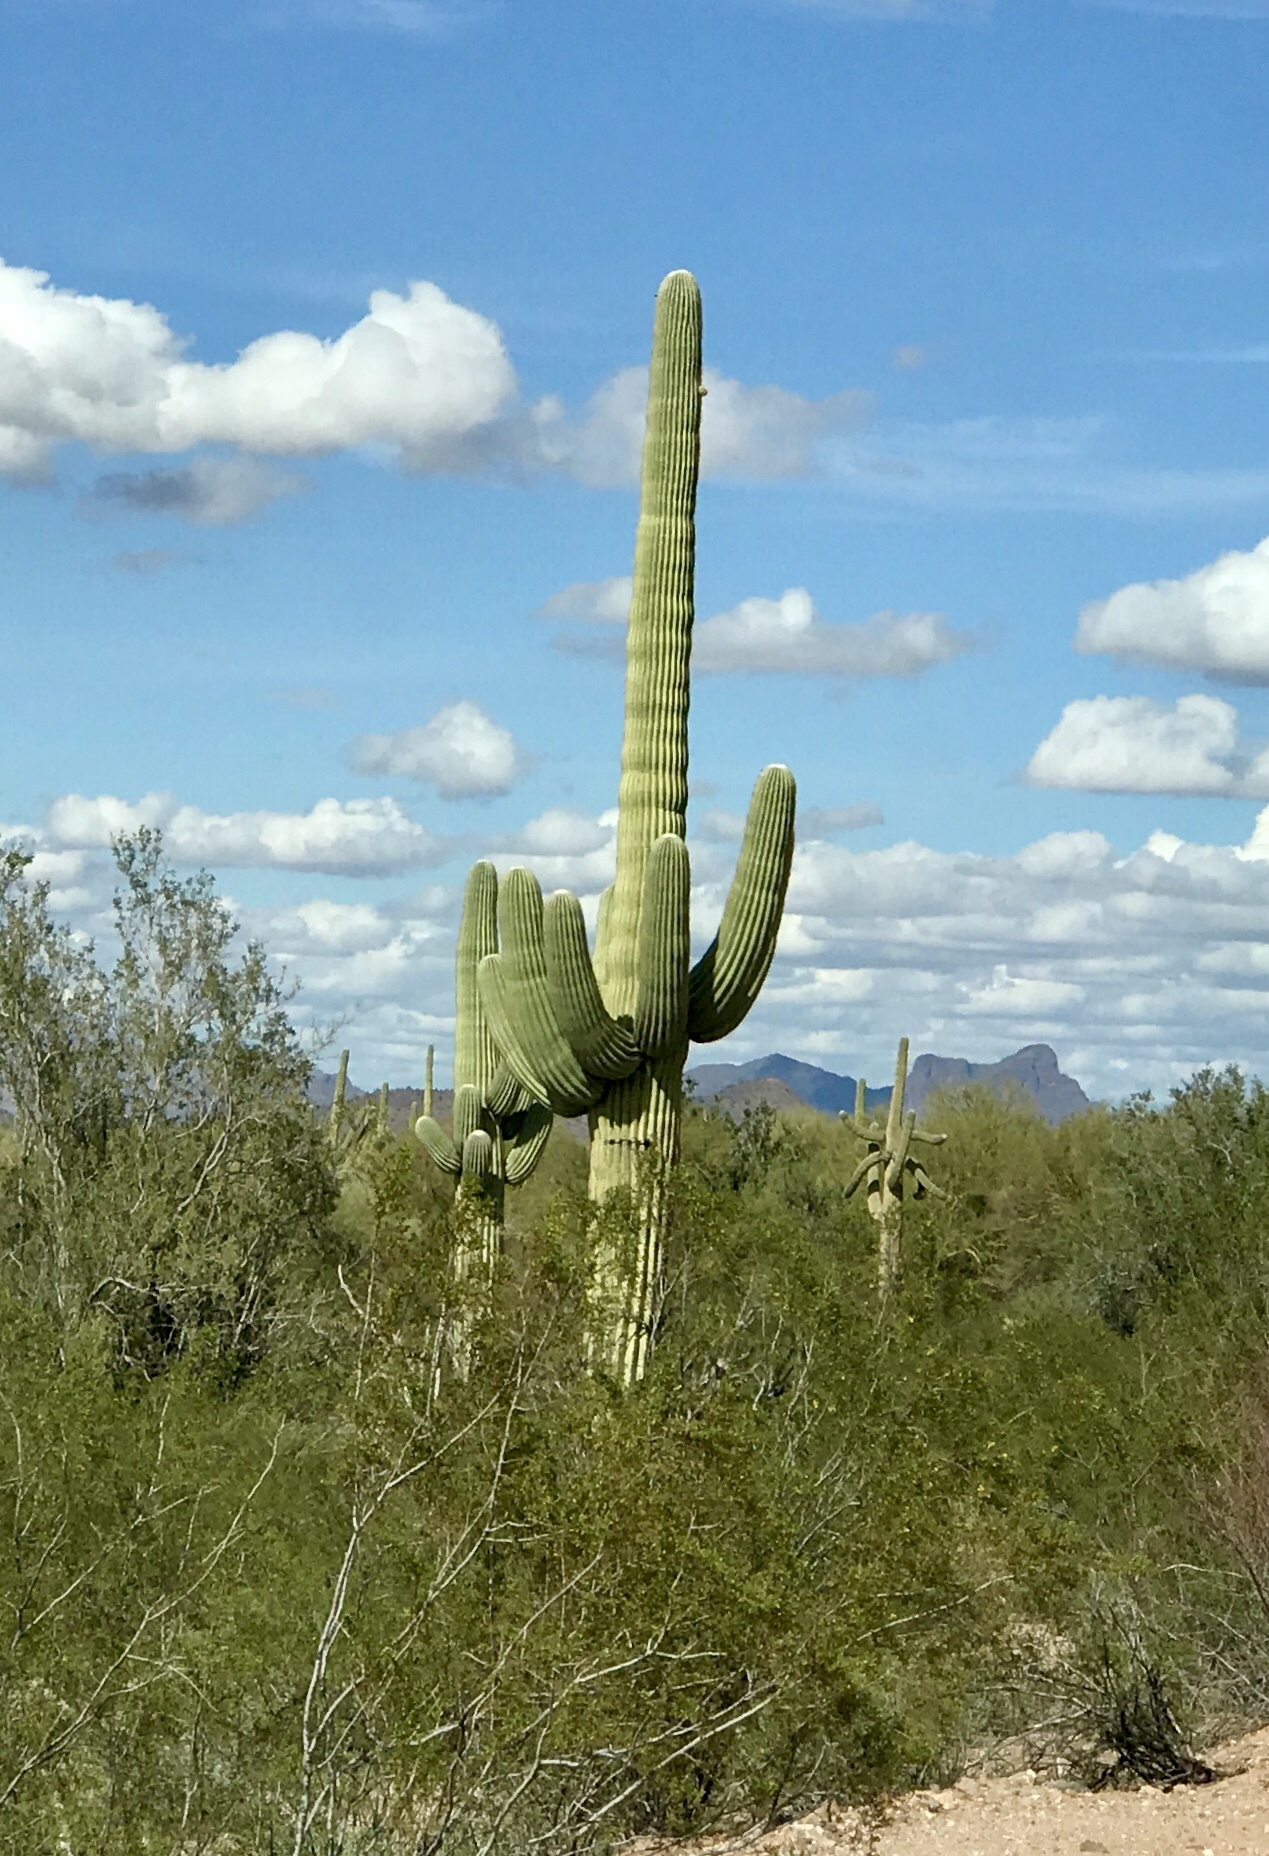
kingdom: Plantae
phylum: Tracheophyta
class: Magnoliopsida
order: Caryophyllales
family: Cactaceae
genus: Carnegiea
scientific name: Carnegiea gigantea
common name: Saguaro
